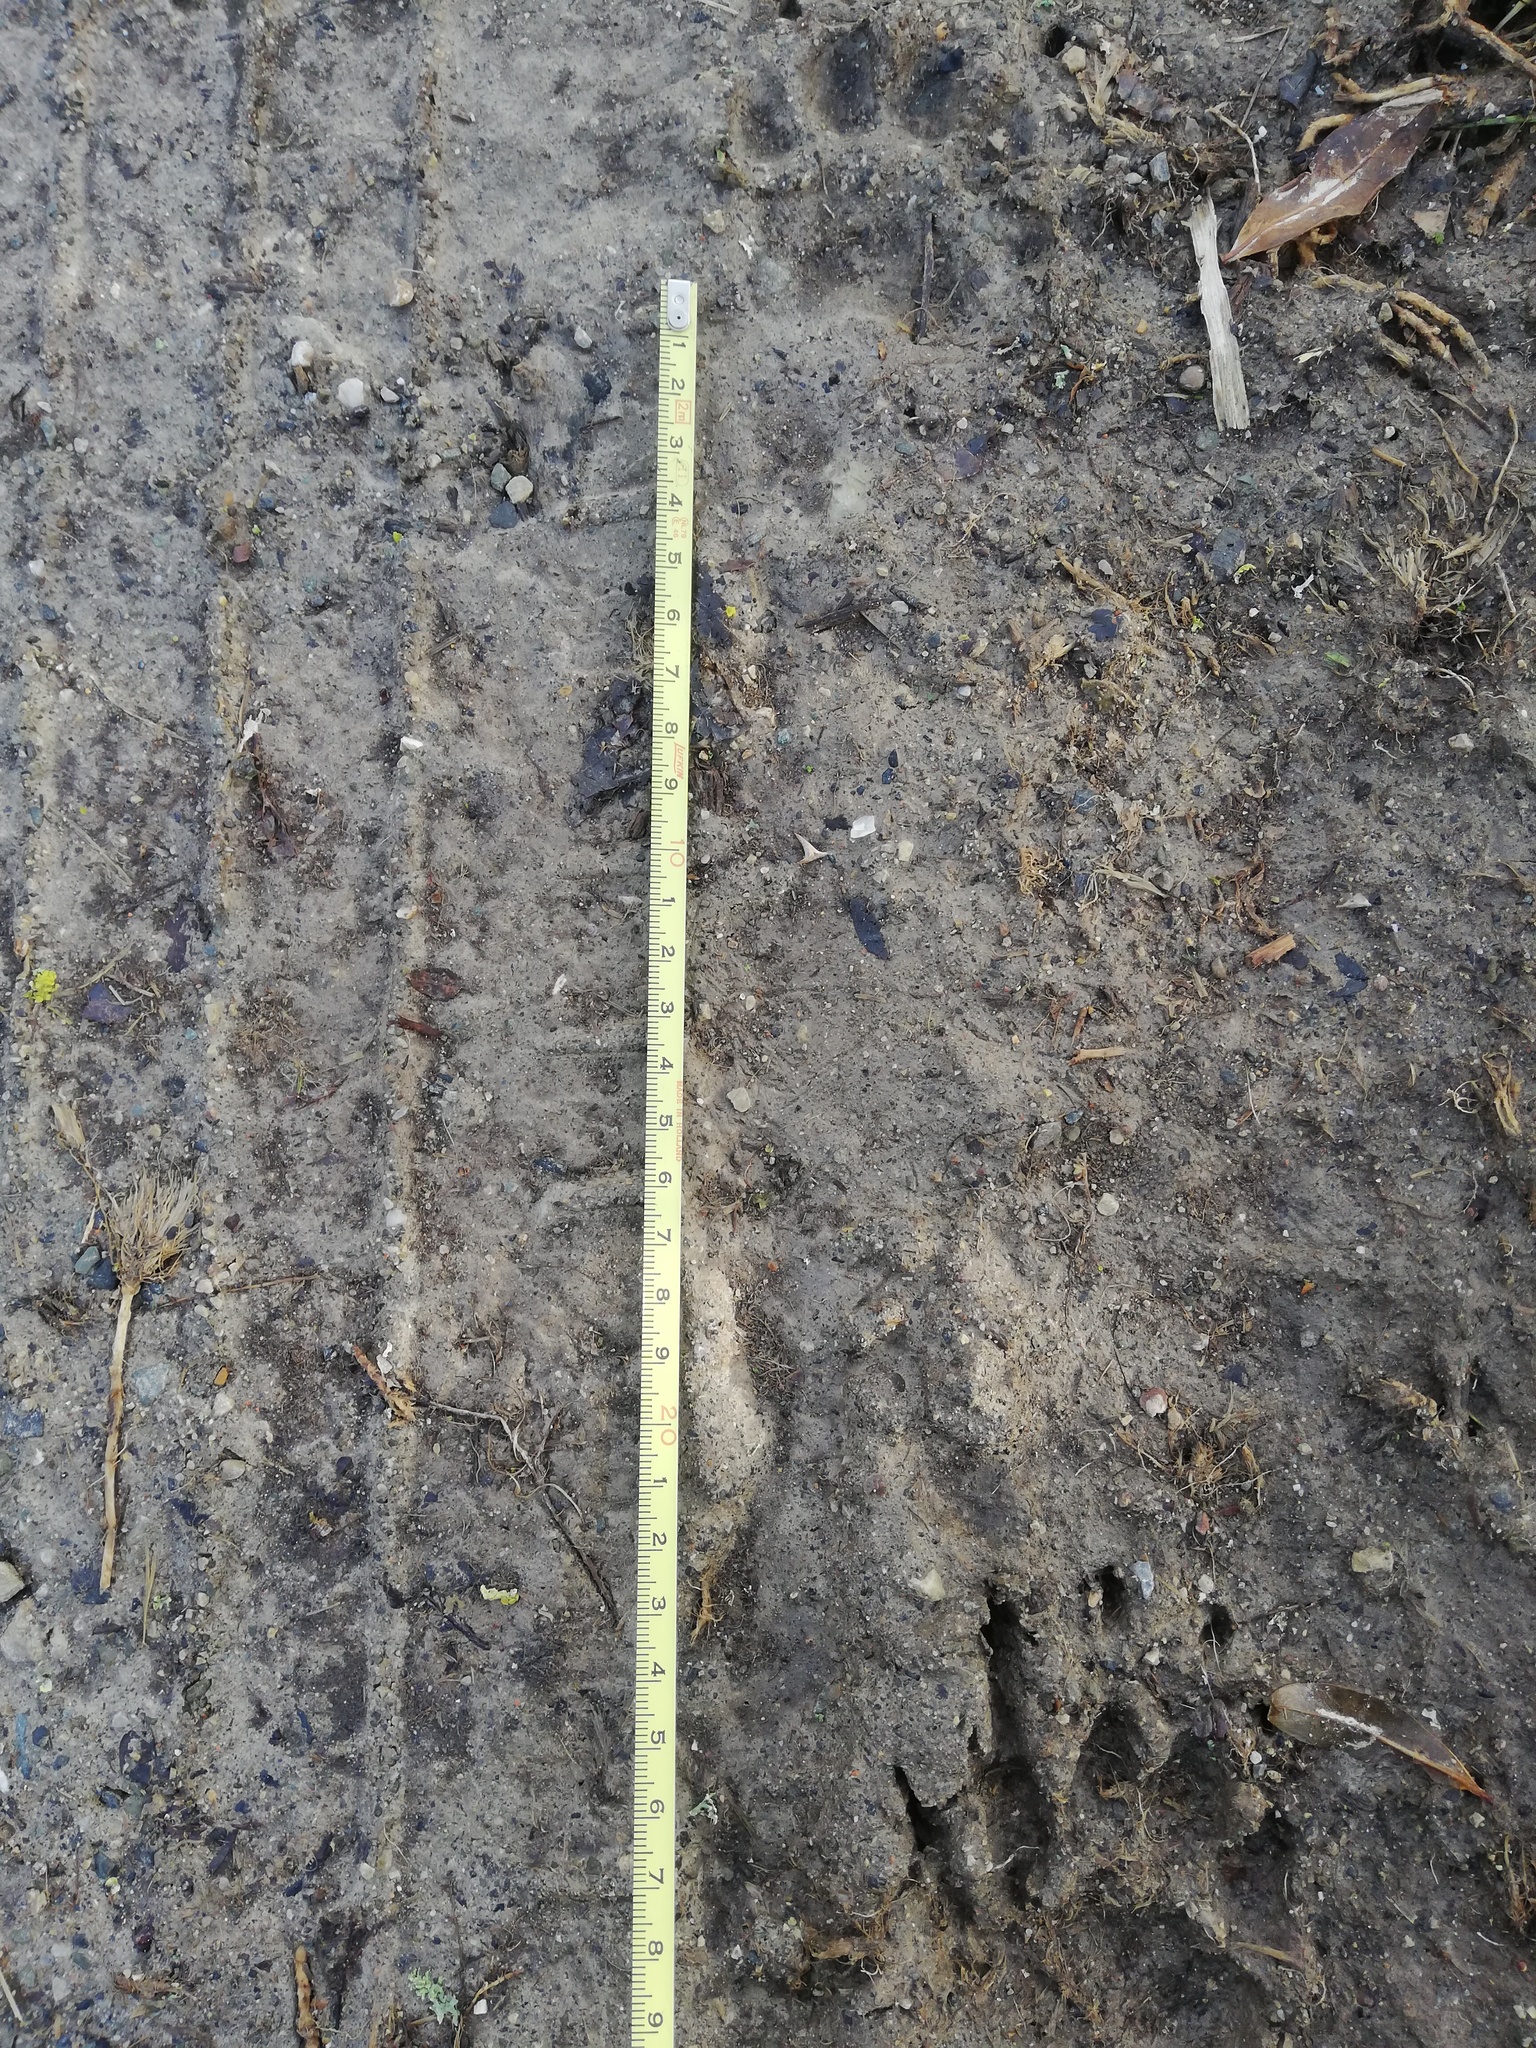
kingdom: Animalia
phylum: Chordata
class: Mammalia
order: Carnivora
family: Mustelidae
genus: Meles
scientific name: Meles meles
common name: Eurasian badger
